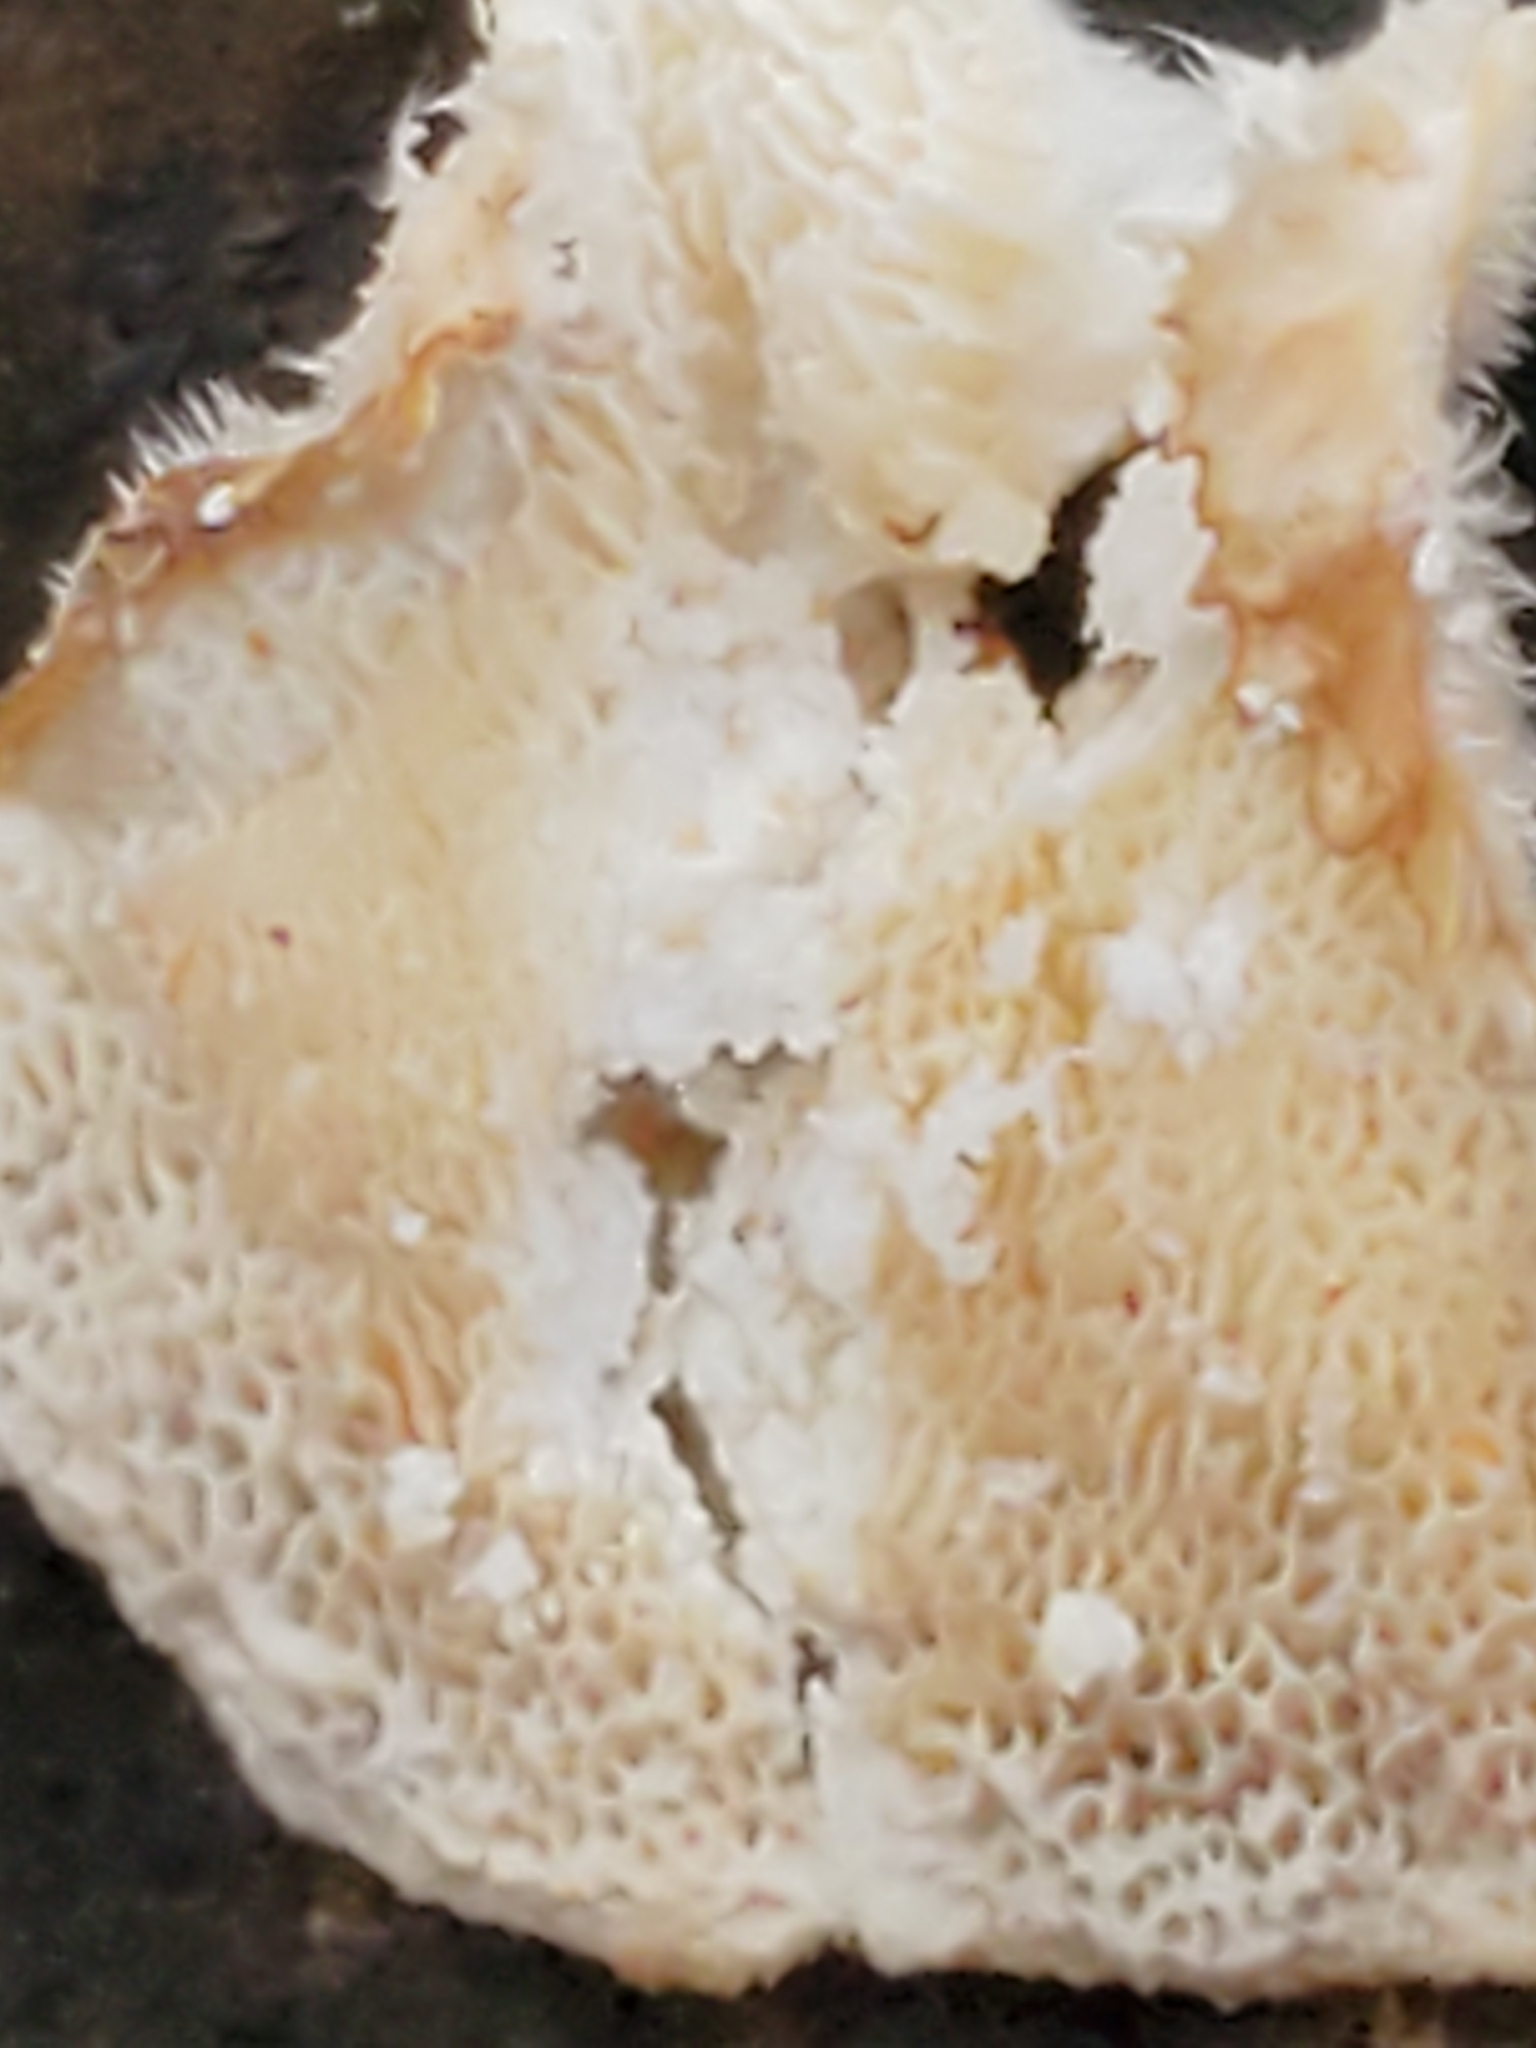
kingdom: Fungi
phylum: Basidiomycota
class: Agaricomycetes
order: Polyporales
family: Grifolaceae
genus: Grifola
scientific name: Grifola frondosa
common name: Hen of the woods
